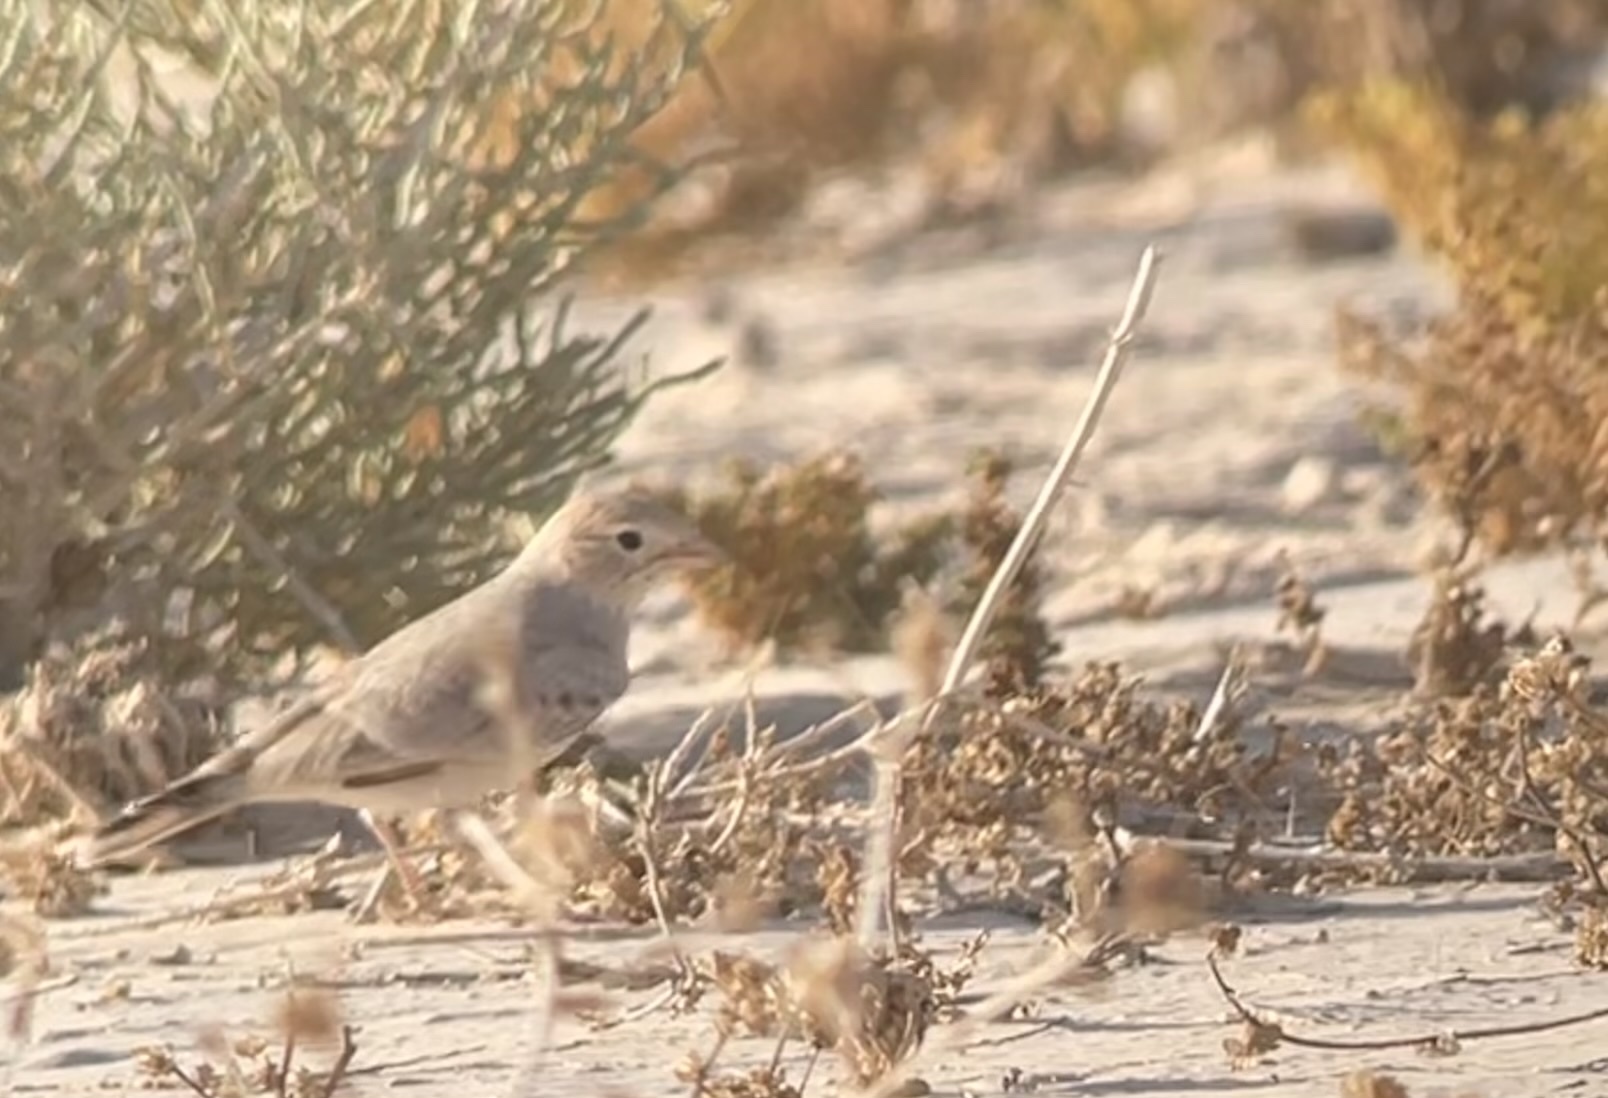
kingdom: Animalia
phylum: Chordata
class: Aves
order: Passeriformes
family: Alaudidae
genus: Ammomanes
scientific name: Ammomanes cinctura
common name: Bar-tailed lark
